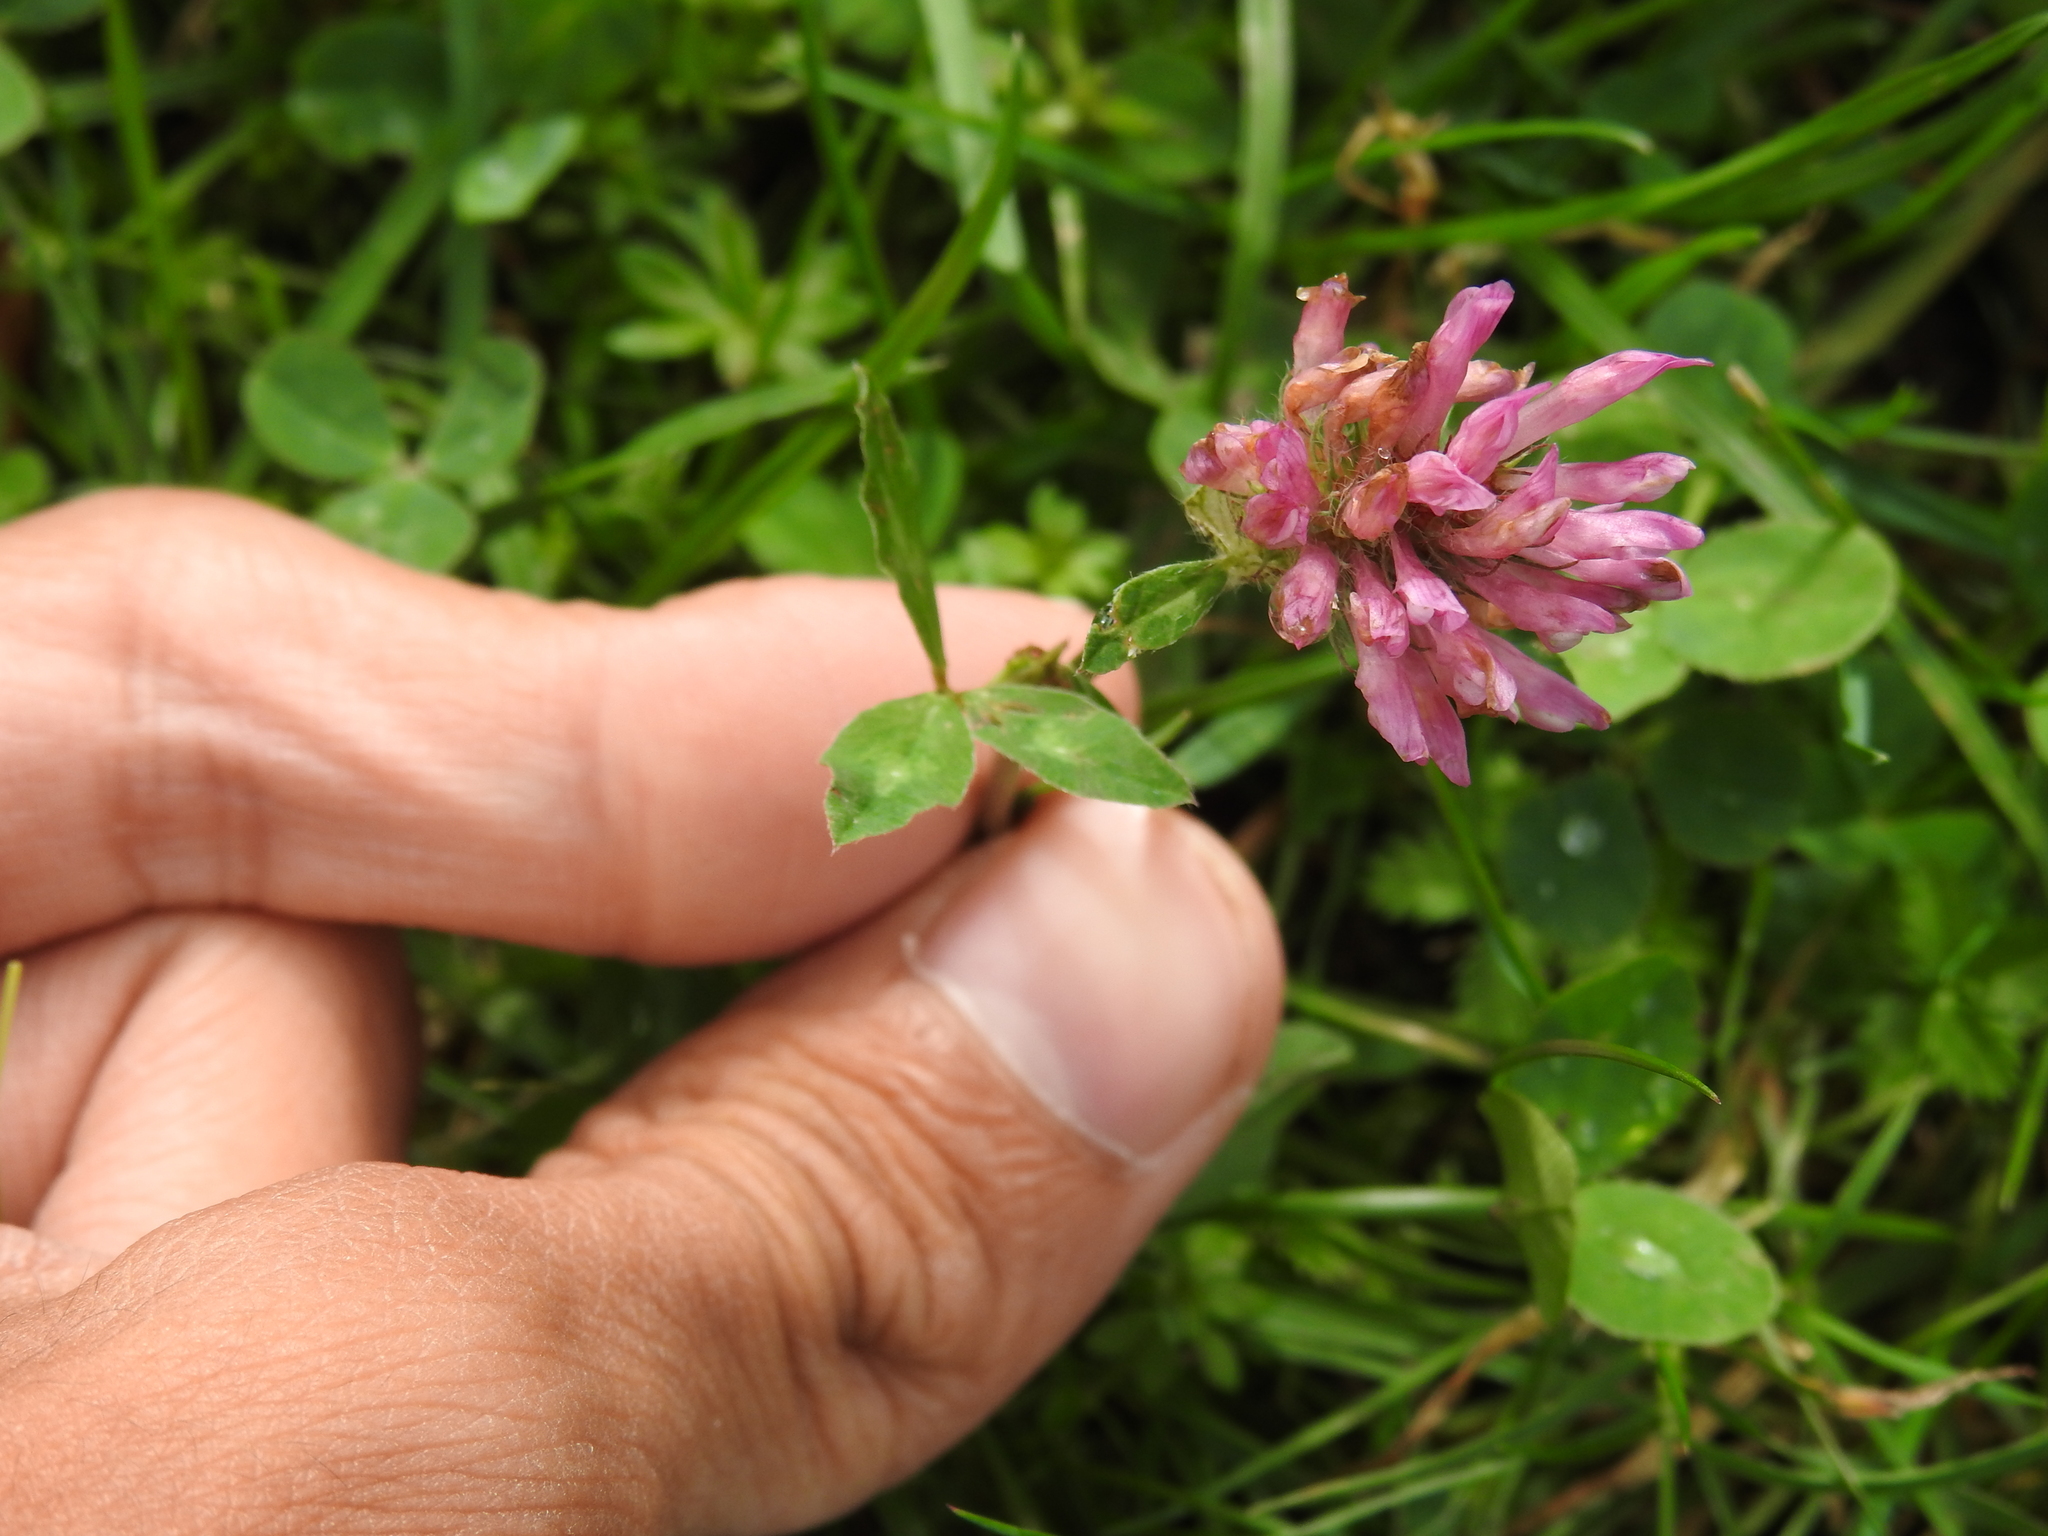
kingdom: Plantae
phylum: Tracheophyta
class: Magnoliopsida
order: Fabales
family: Fabaceae
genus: Trifolium
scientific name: Trifolium pratense
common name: Red clover
